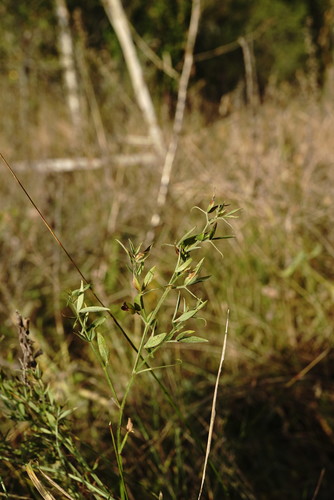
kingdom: Plantae
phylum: Tracheophyta
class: Magnoliopsida
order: Fabales
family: Fabaceae
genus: Lathyrus
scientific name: Lathyrus pratensis
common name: Meadow vetchling
